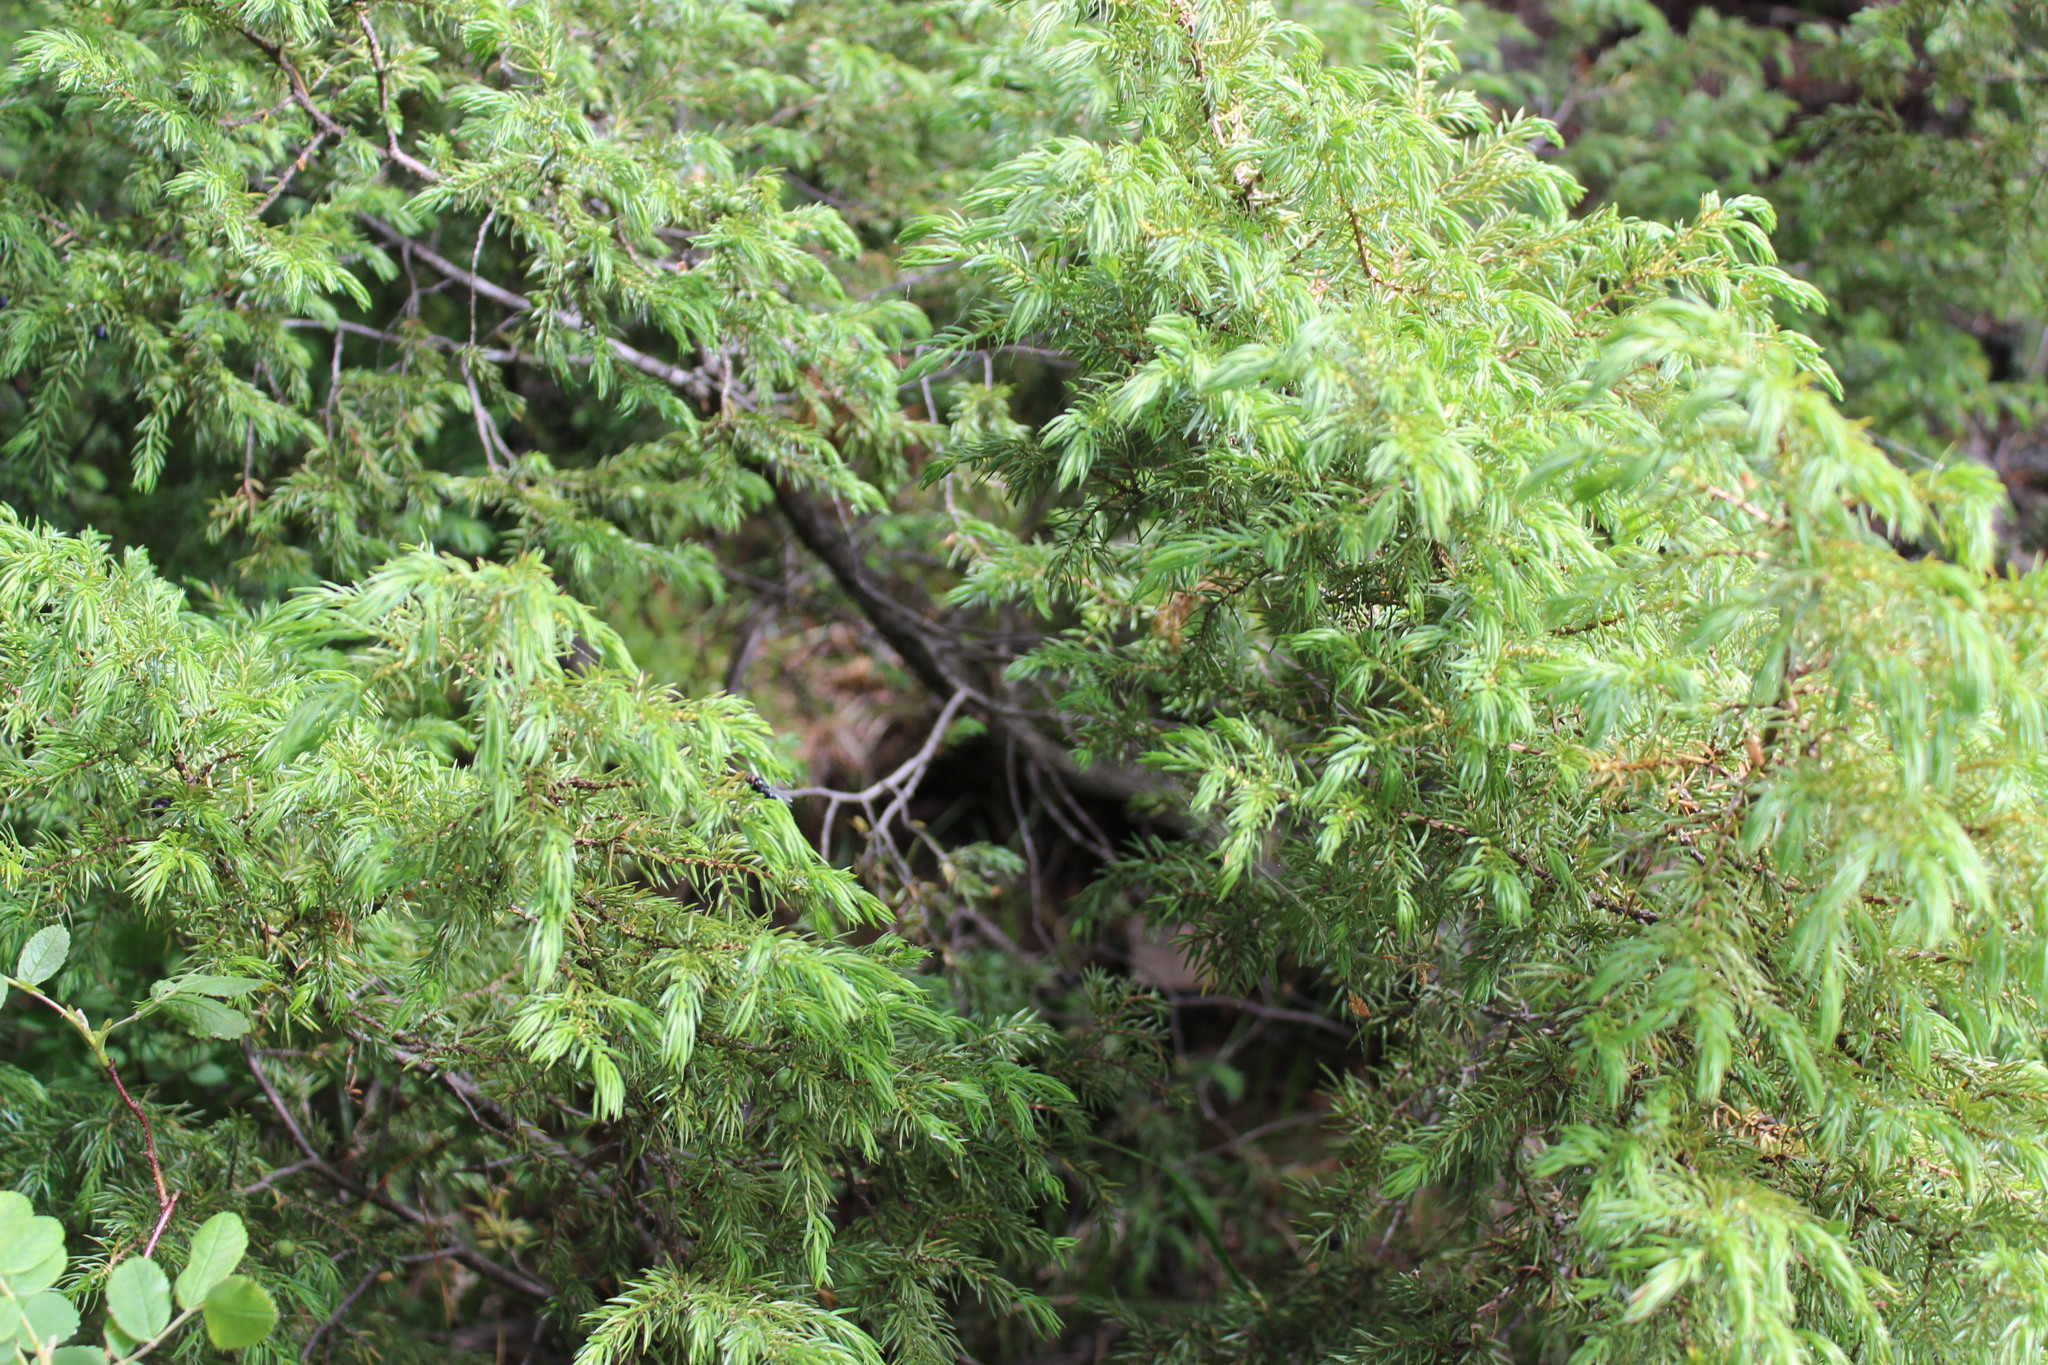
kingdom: Plantae
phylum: Tracheophyta
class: Pinopsida
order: Pinales
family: Cupressaceae
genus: Juniperus
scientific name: Juniperus communis
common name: Common juniper
